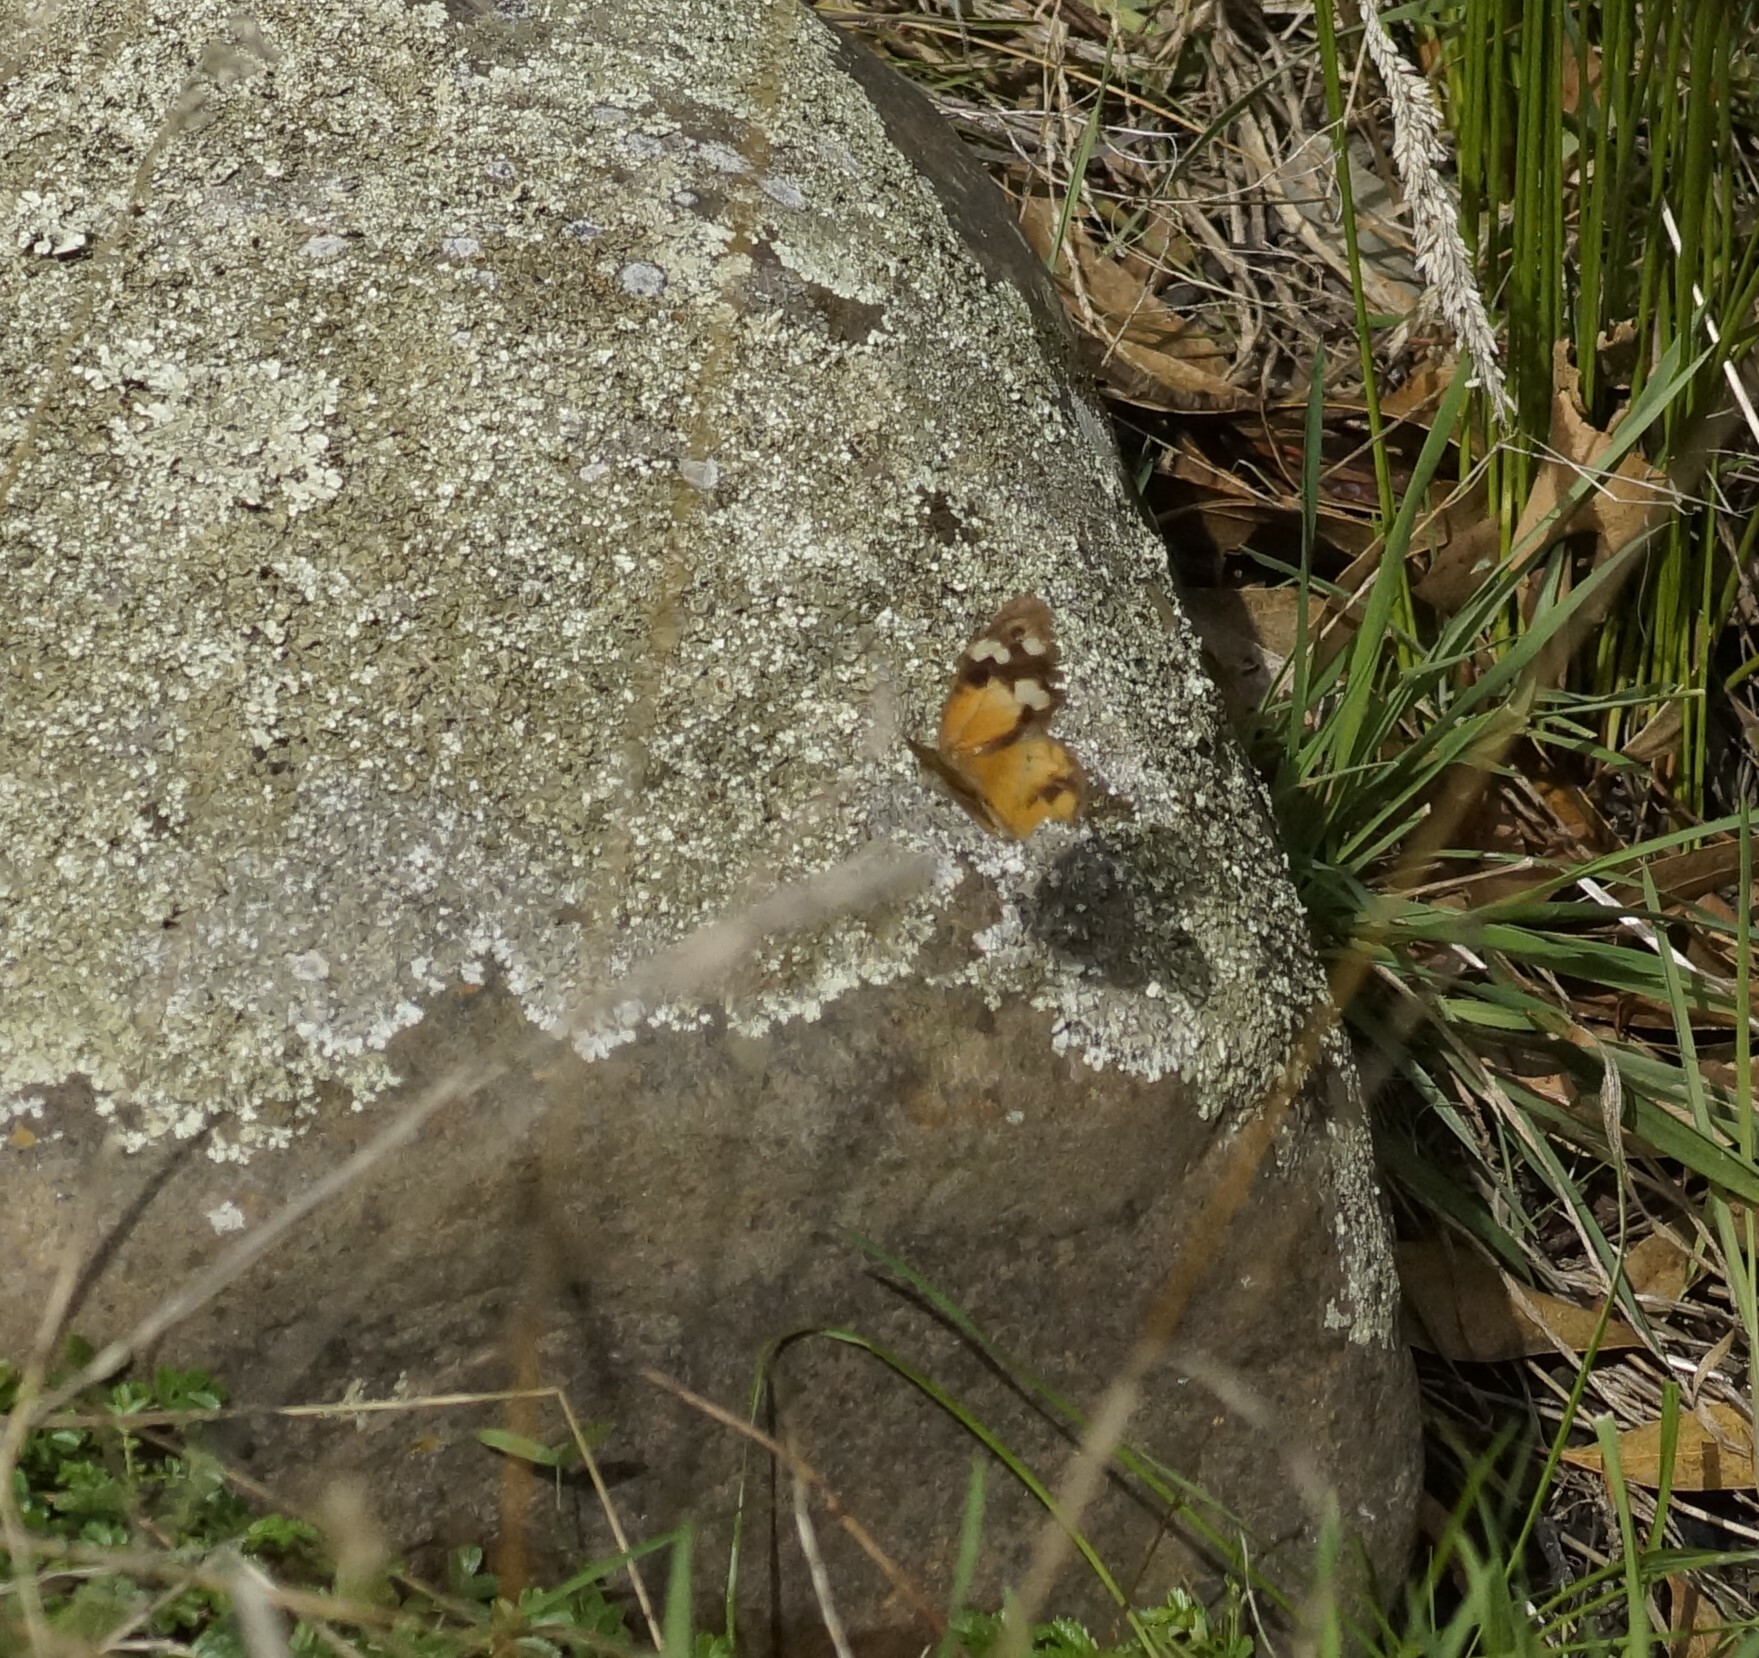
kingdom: Animalia
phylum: Arthropoda
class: Insecta
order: Lepidoptera
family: Nymphalidae
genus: Heteronympha
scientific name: Heteronympha merope
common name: Common brown
